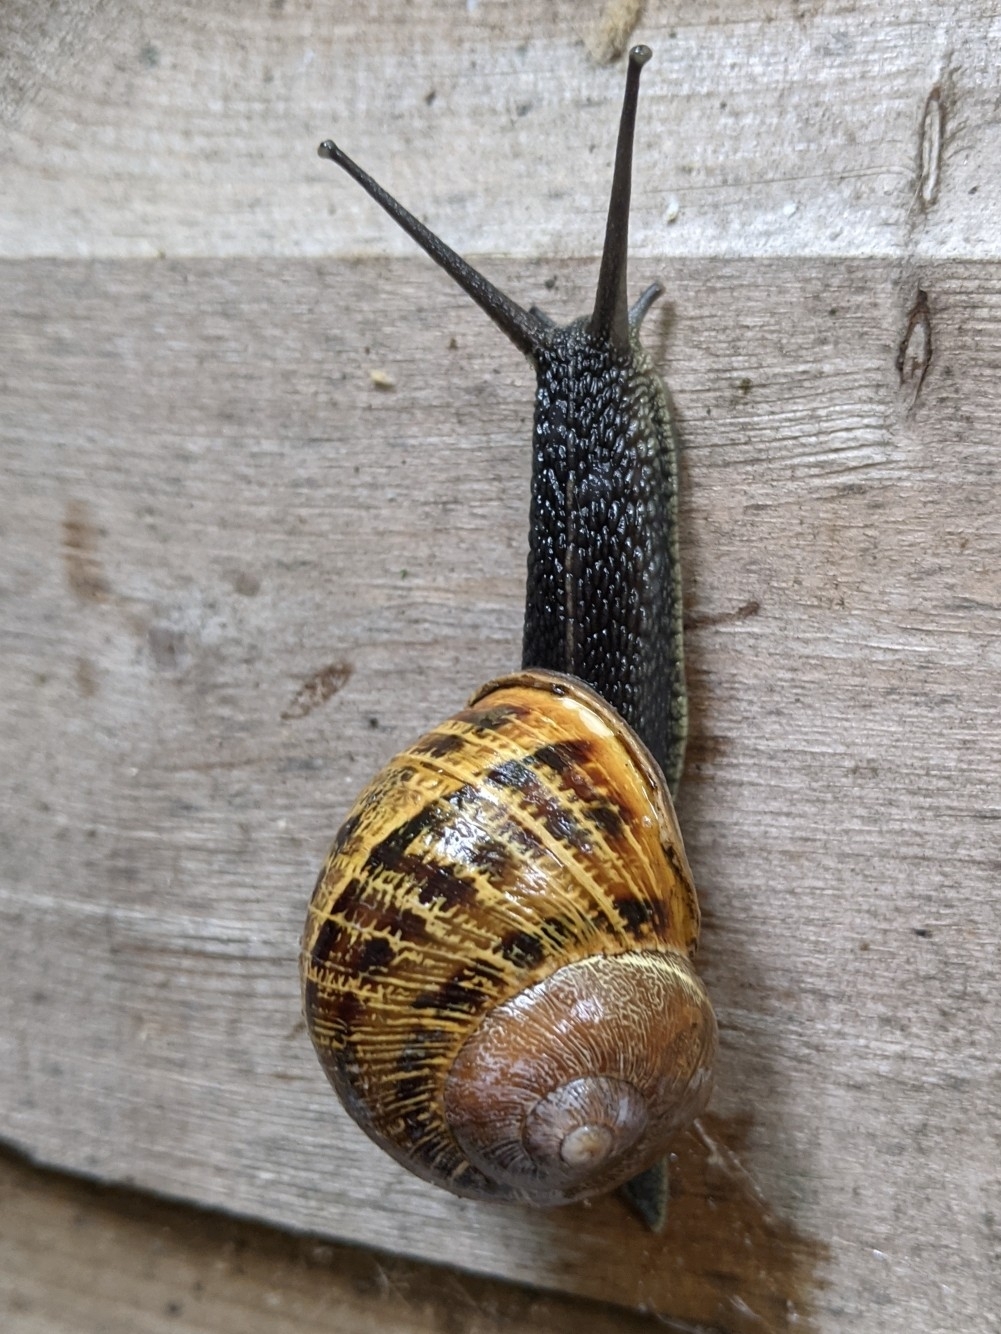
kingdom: Animalia
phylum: Mollusca
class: Gastropoda
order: Stylommatophora
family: Helicidae
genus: Cornu
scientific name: Cornu aspersum
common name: Brown garden snail
